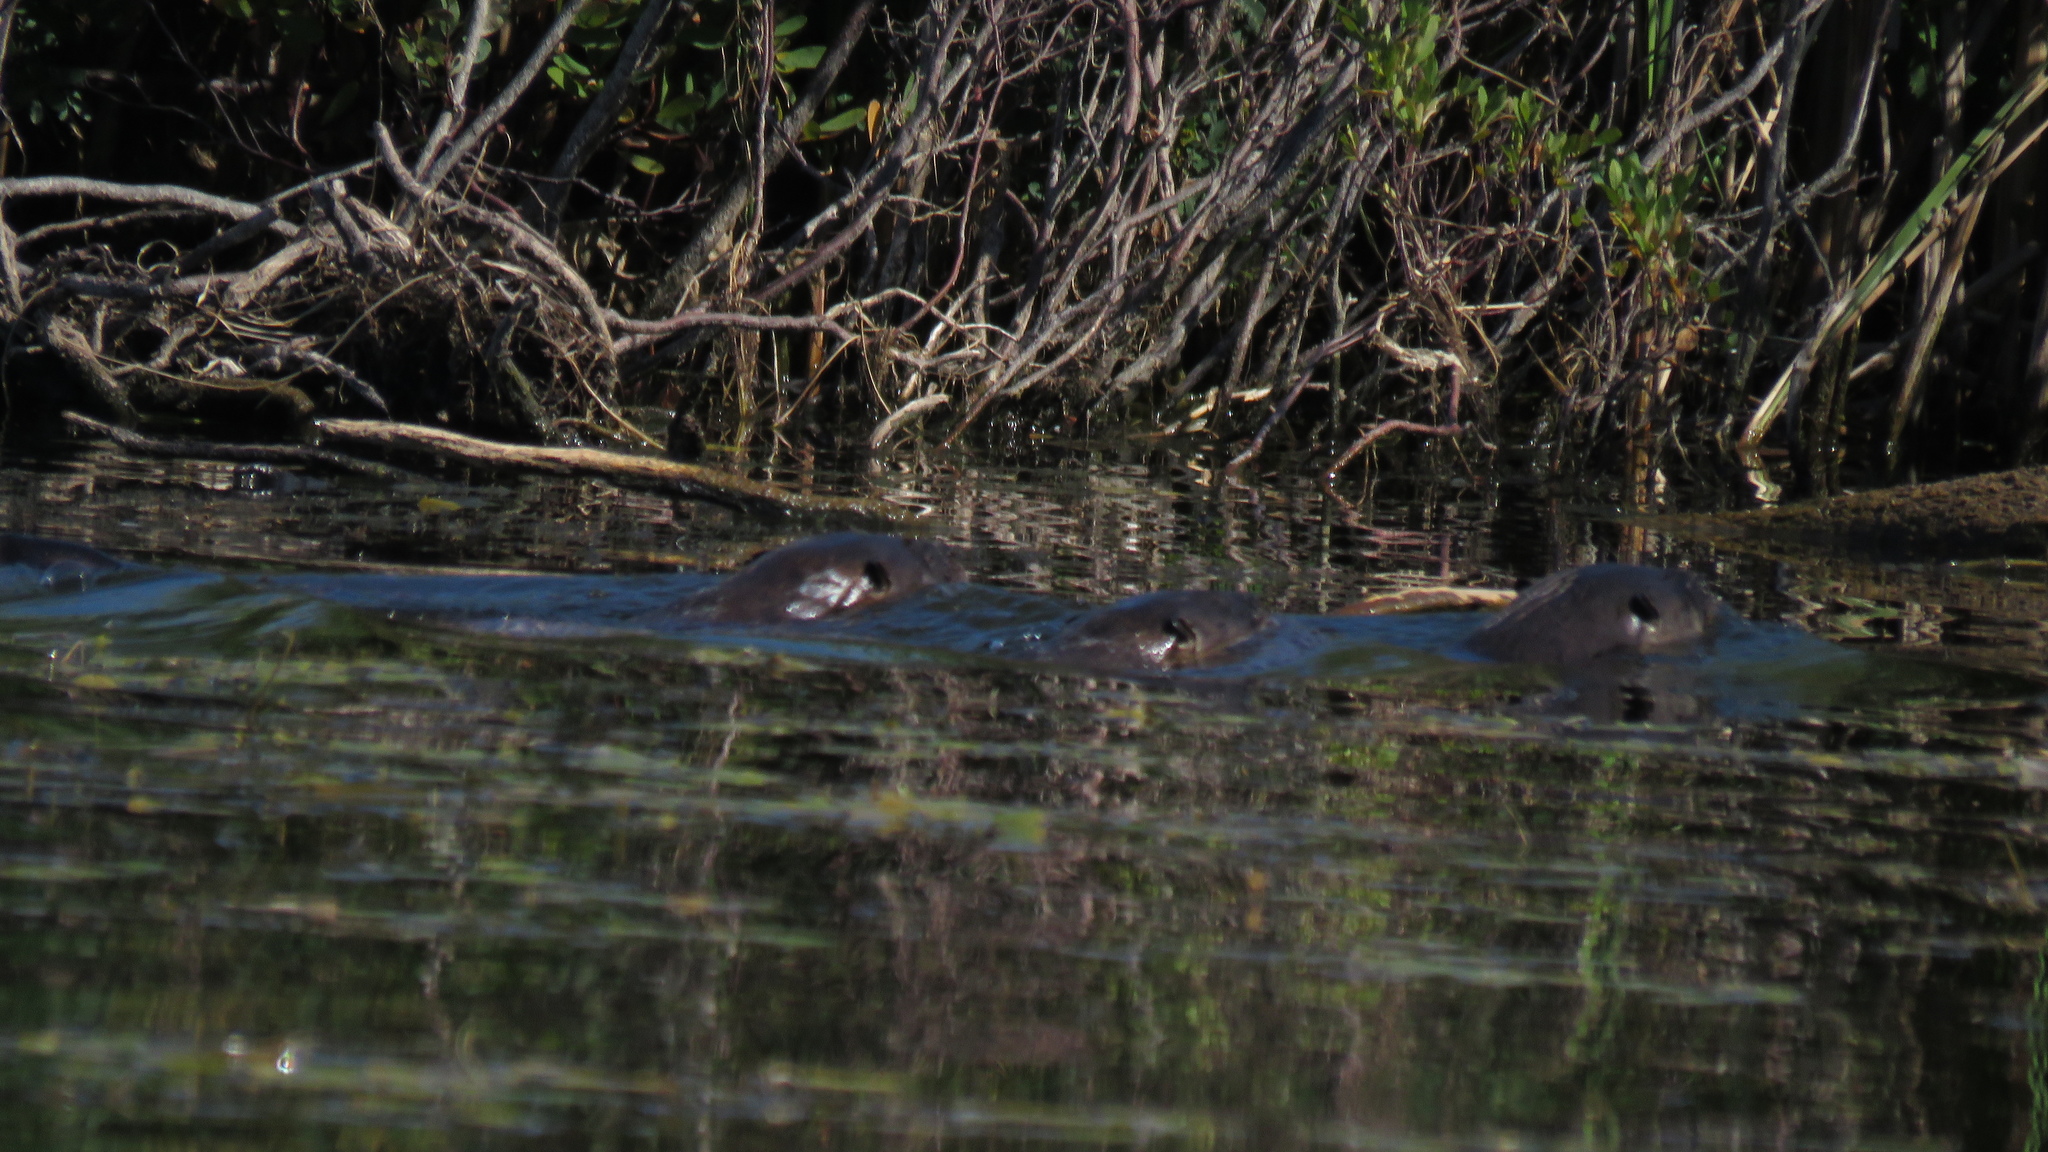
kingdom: Animalia
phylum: Chordata
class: Mammalia
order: Carnivora
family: Mustelidae
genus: Lontra
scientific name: Lontra canadensis
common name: North american river otter
